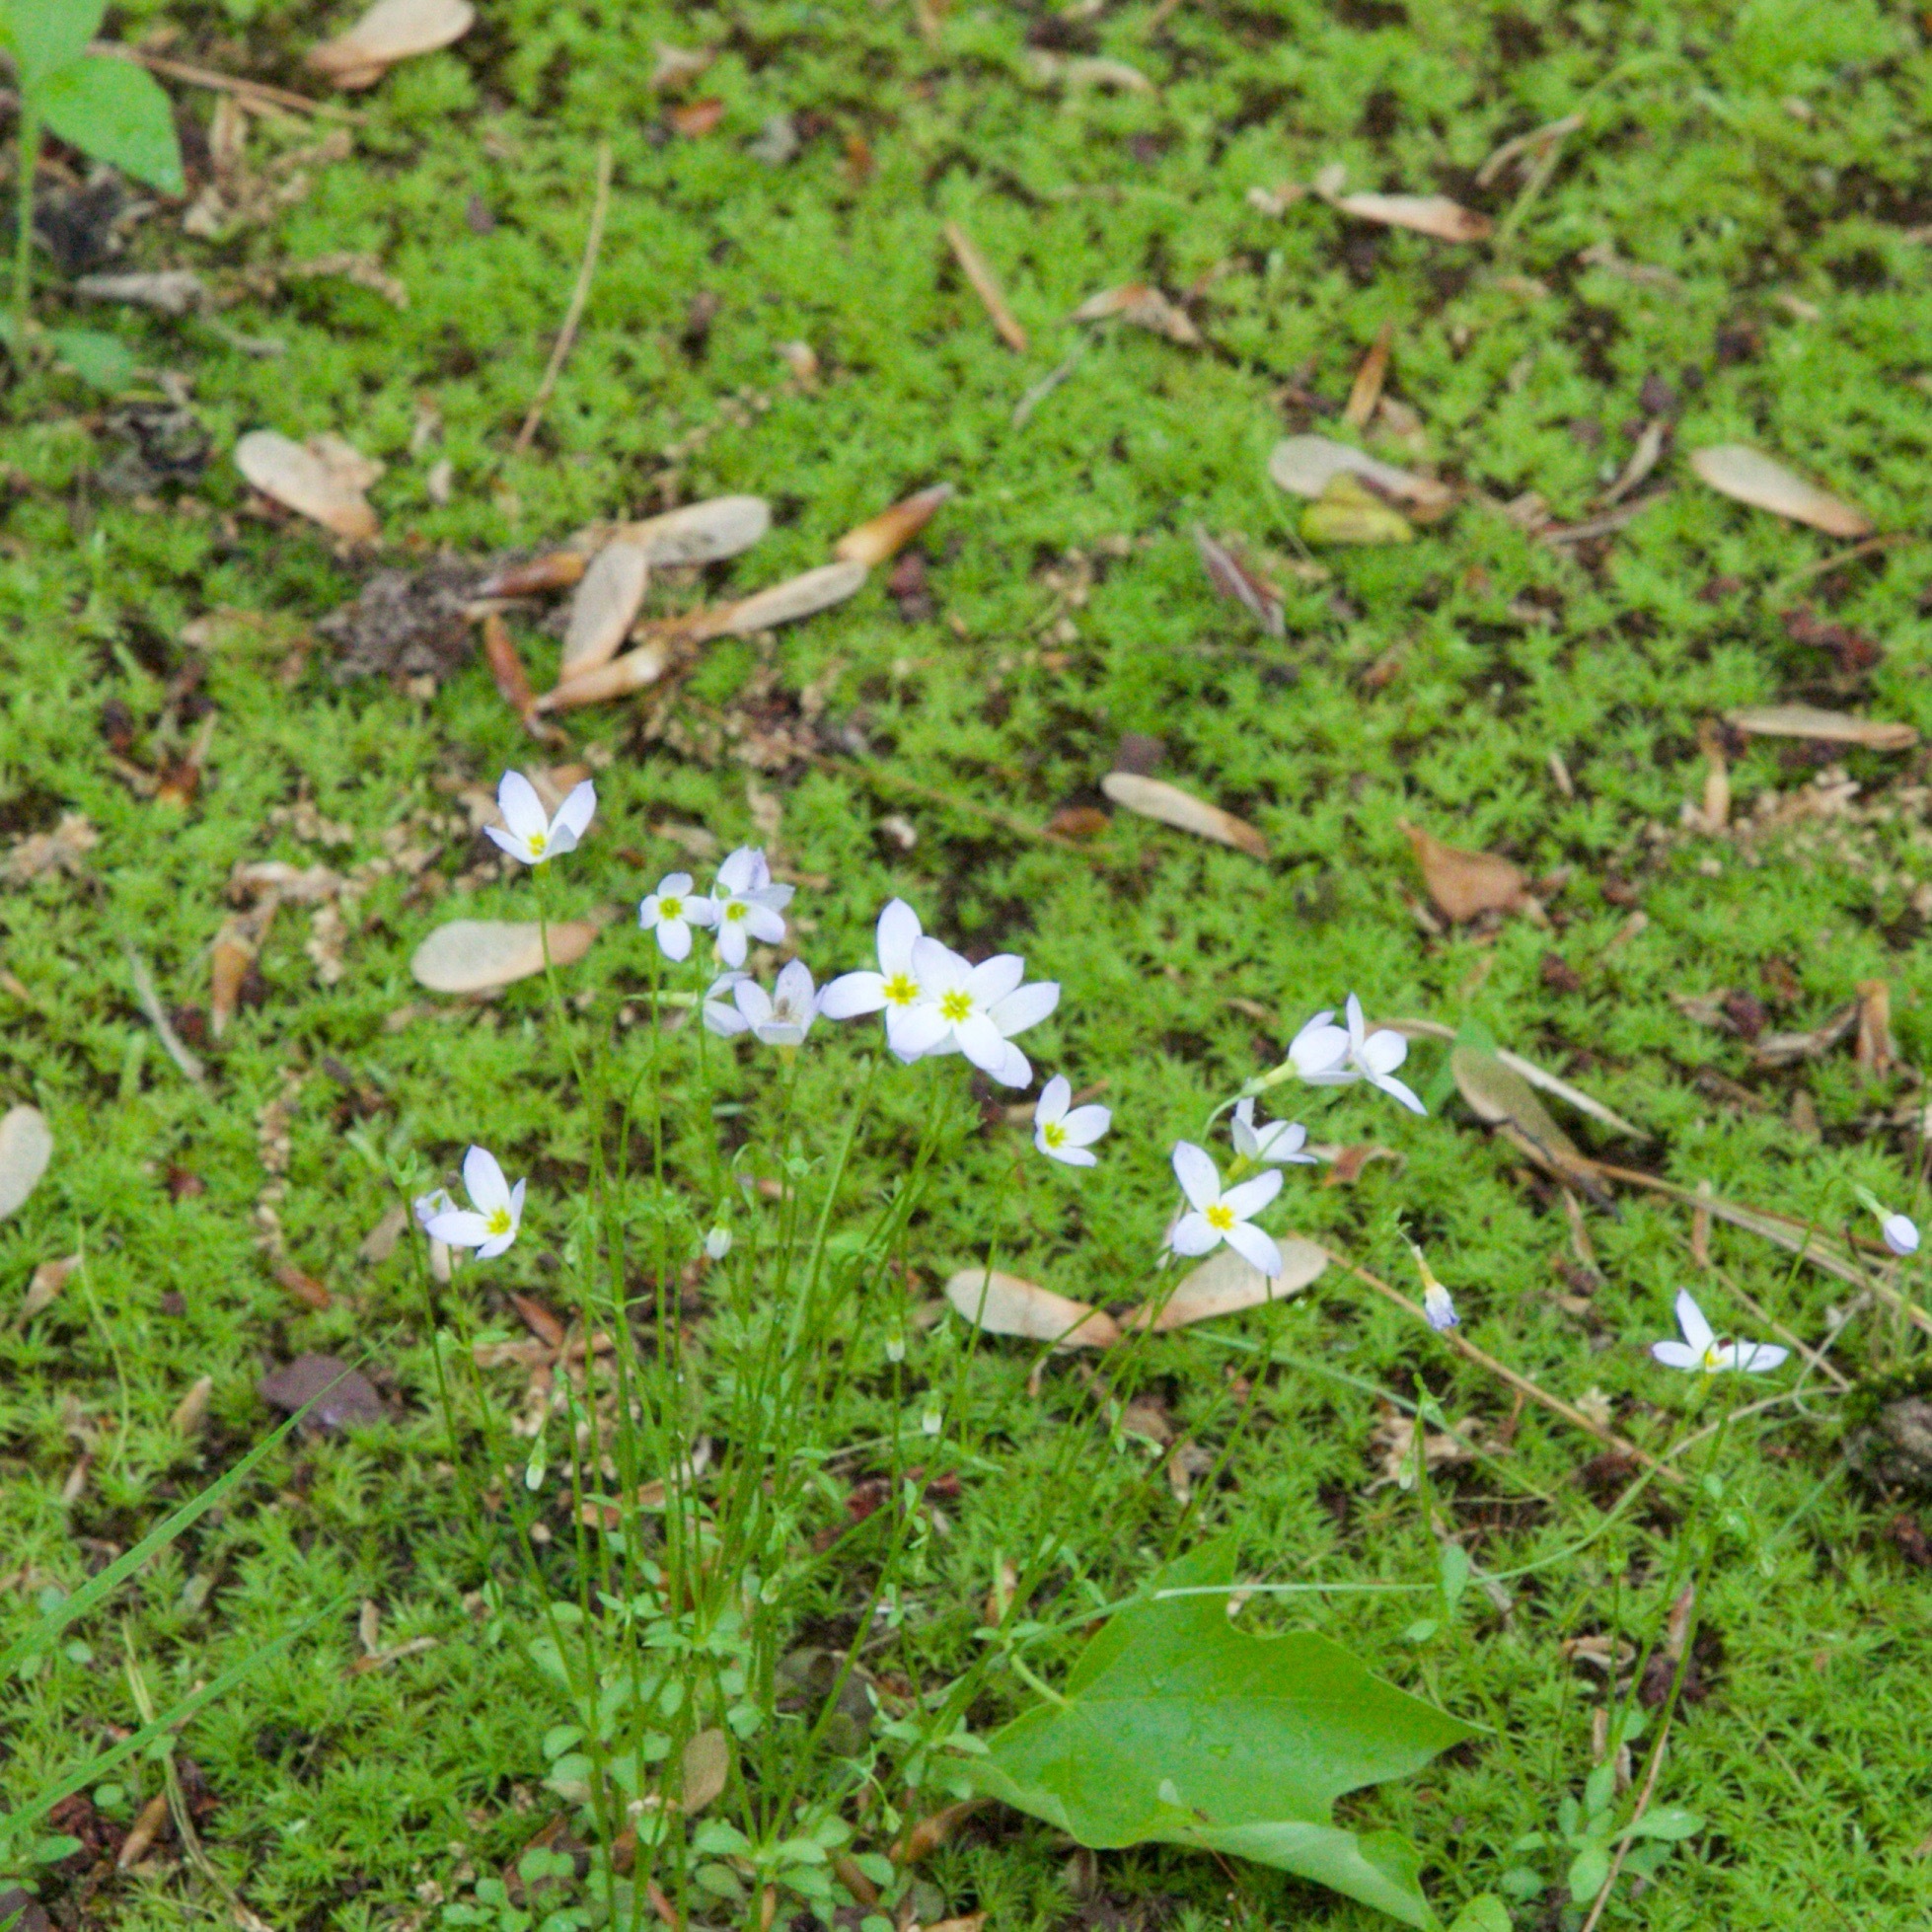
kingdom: Plantae
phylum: Tracheophyta
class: Magnoliopsida
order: Gentianales
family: Rubiaceae
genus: Houstonia
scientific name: Houstonia caerulea
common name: Bluets
